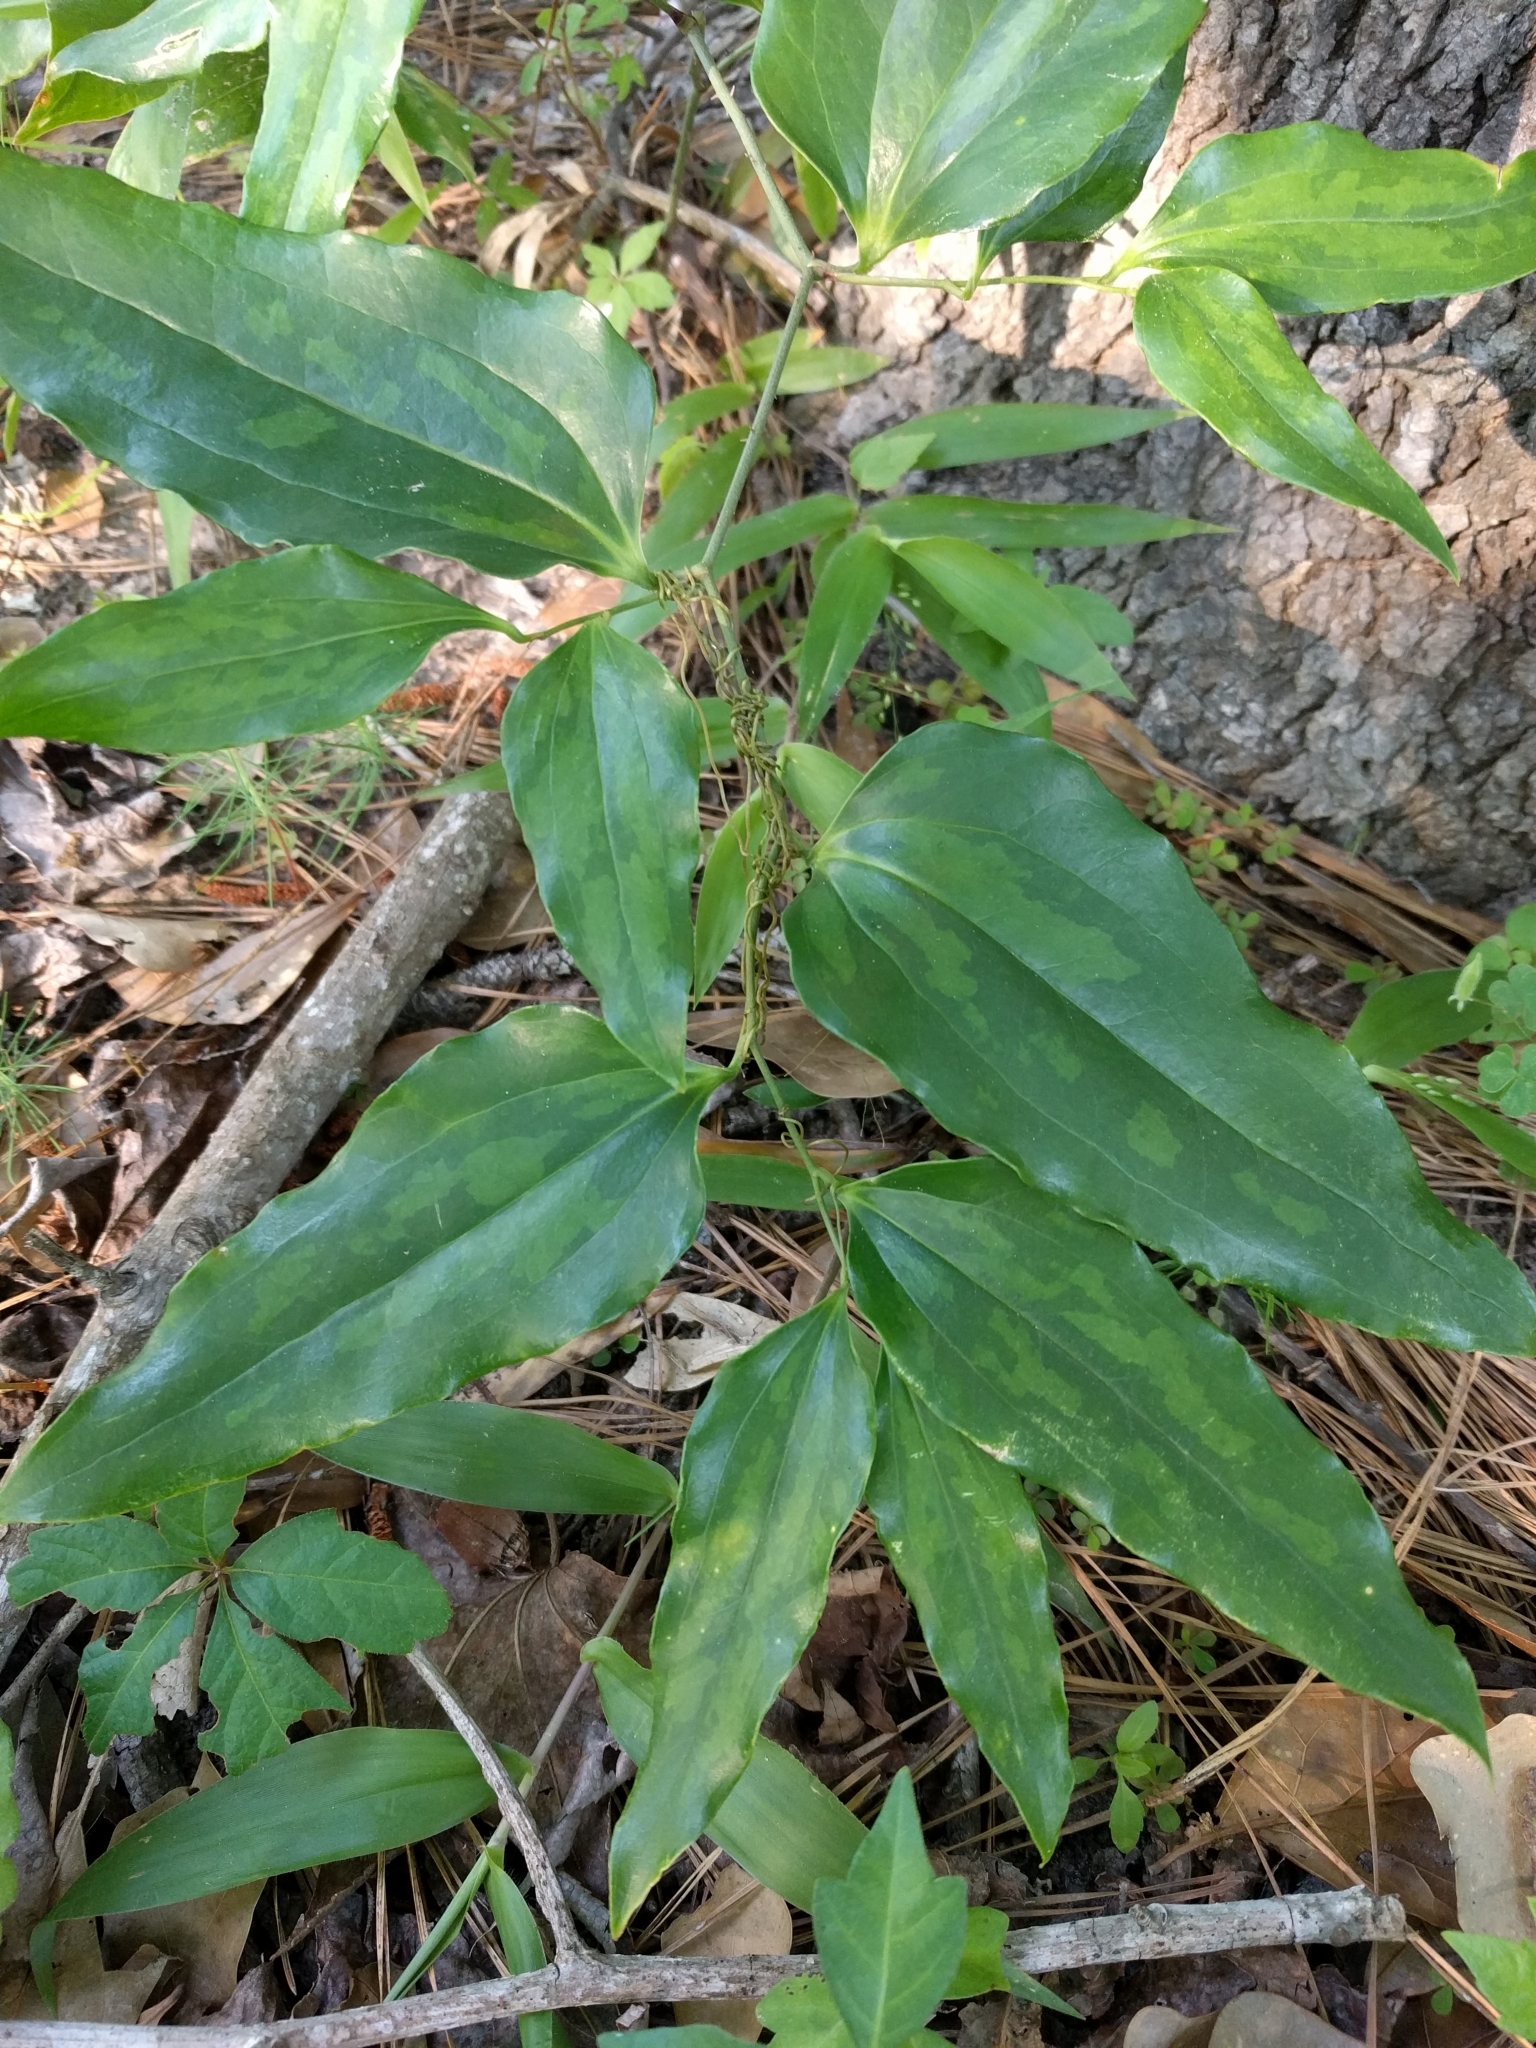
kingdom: Plantae
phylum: Tracheophyta
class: Liliopsida
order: Liliales
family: Smilacaceae
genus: Smilax
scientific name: Smilax maritima
